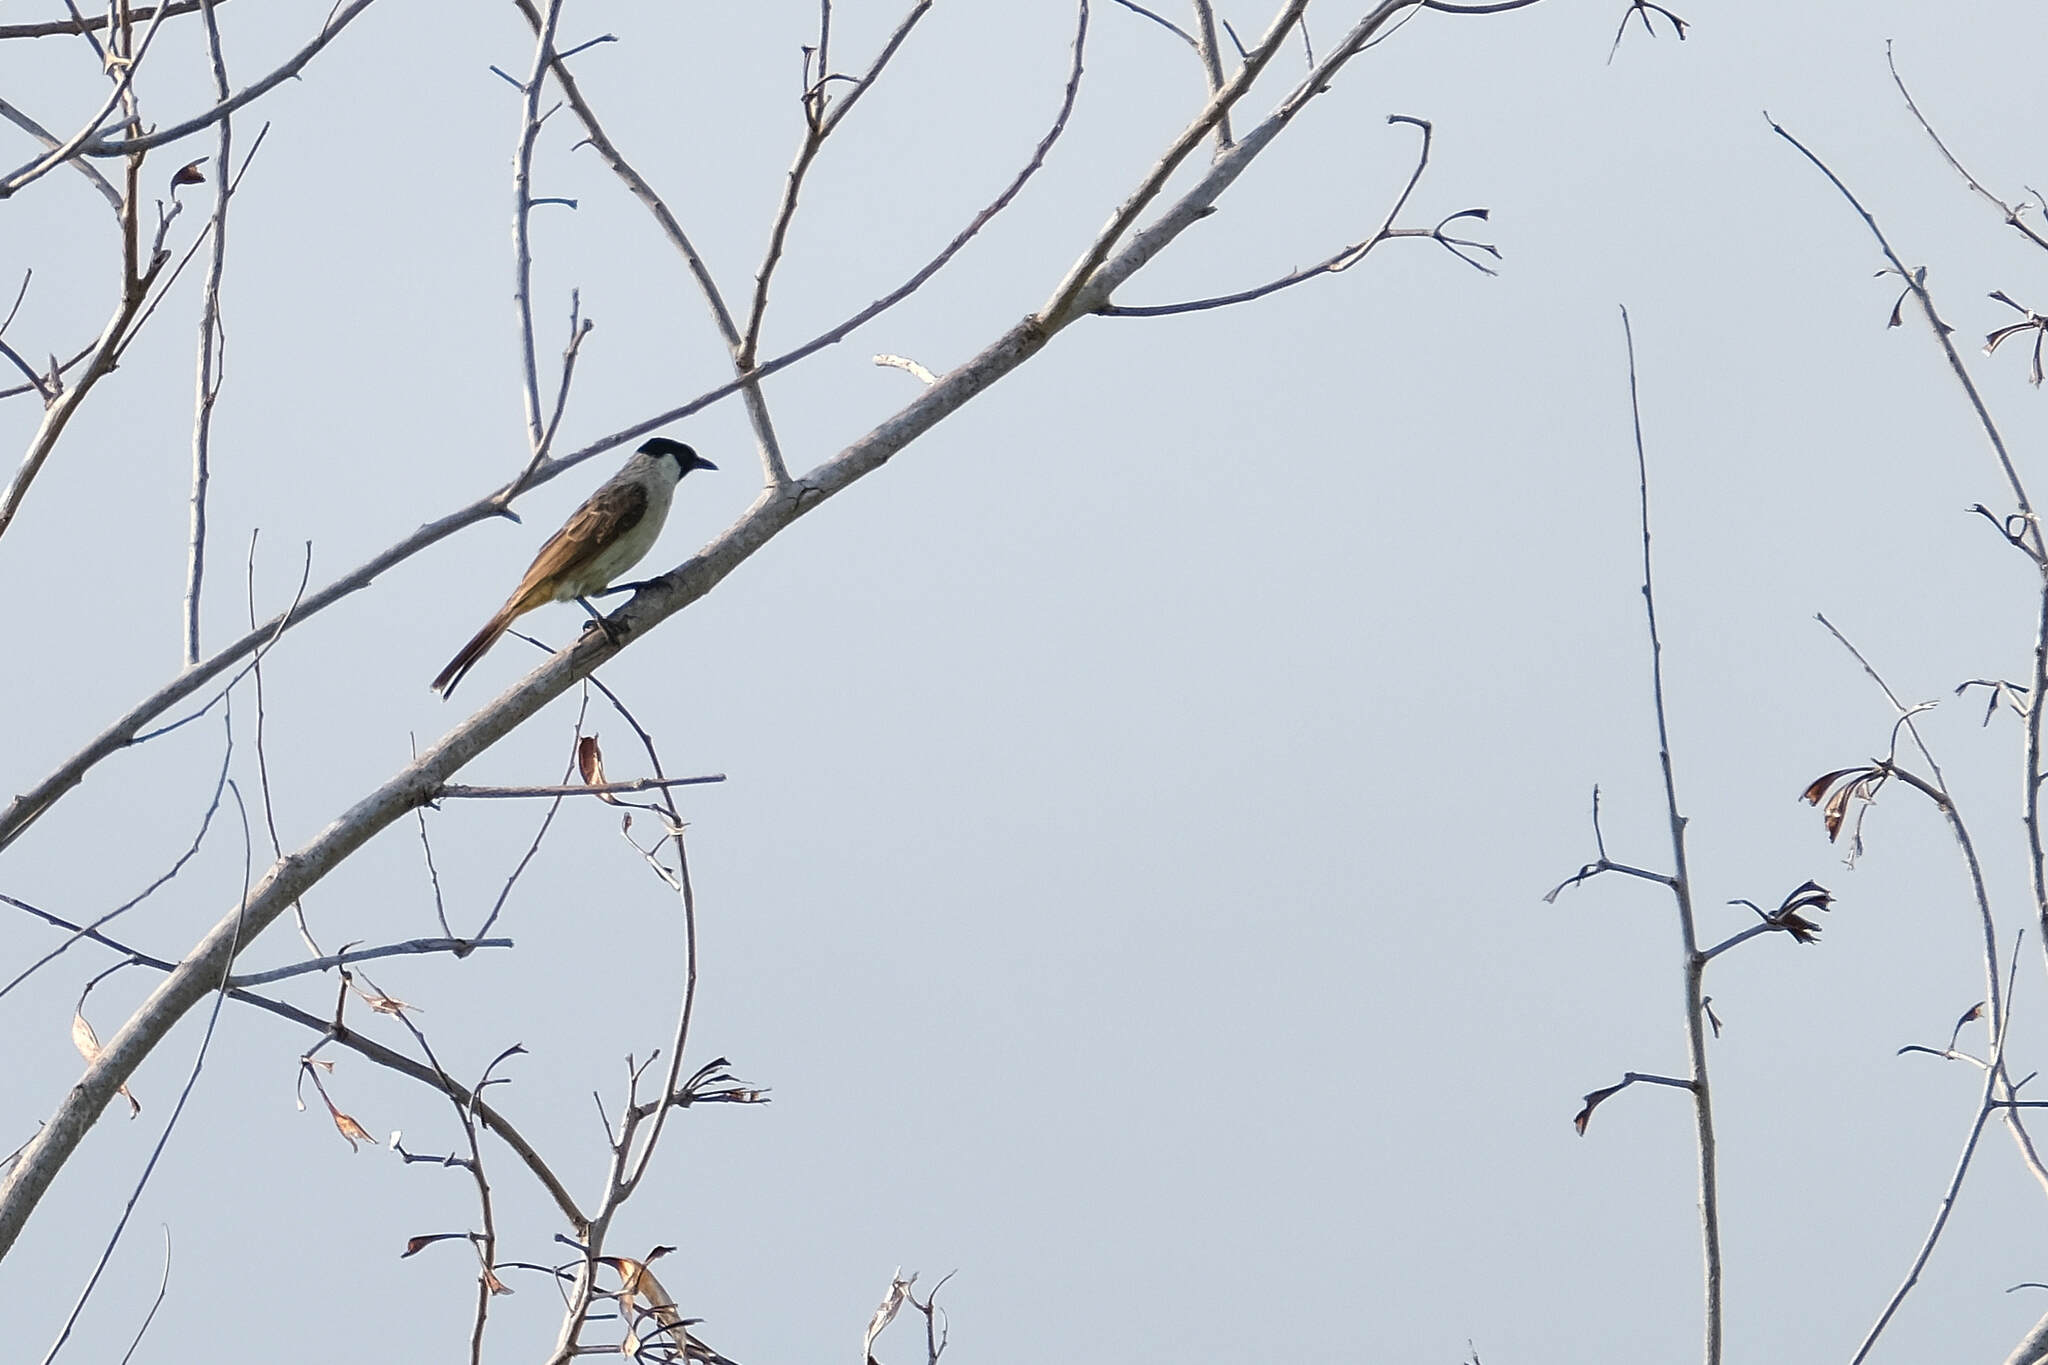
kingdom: Animalia
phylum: Chordata
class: Aves
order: Passeriformes
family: Pycnonotidae
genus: Pycnonotus
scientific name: Pycnonotus aurigaster
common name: Sooty-headed bulbul
